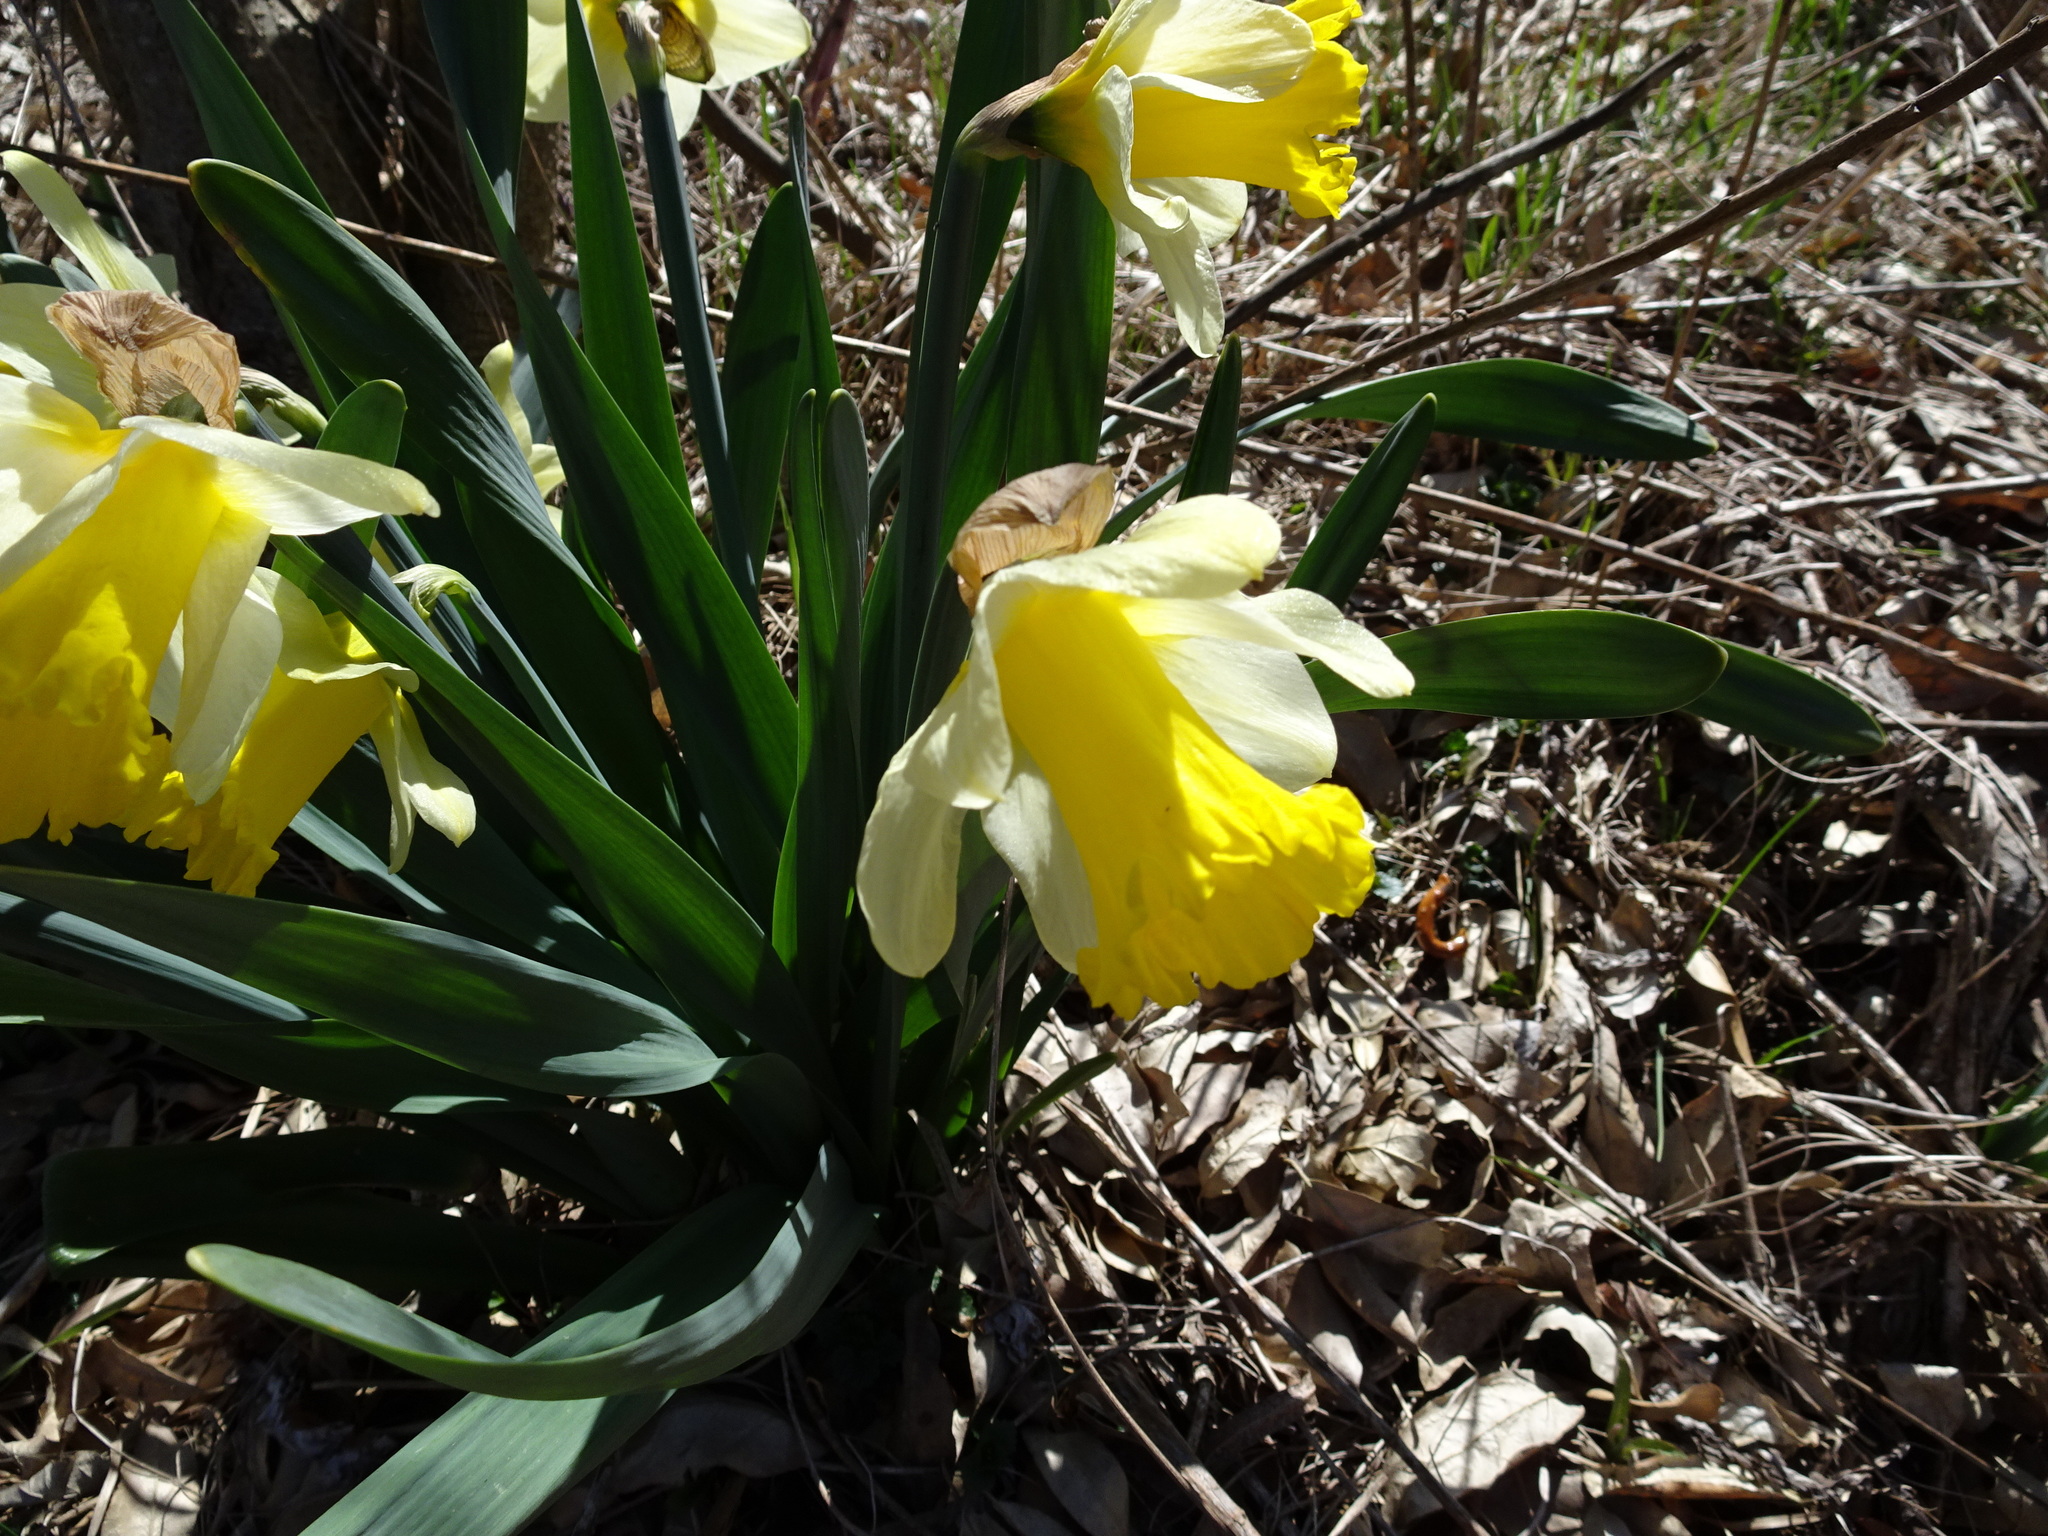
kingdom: Plantae
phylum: Tracheophyta
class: Liliopsida
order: Asparagales
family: Amaryllidaceae
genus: Narcissus
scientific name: Narcissus pseudonarcissus
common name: Daffodil
